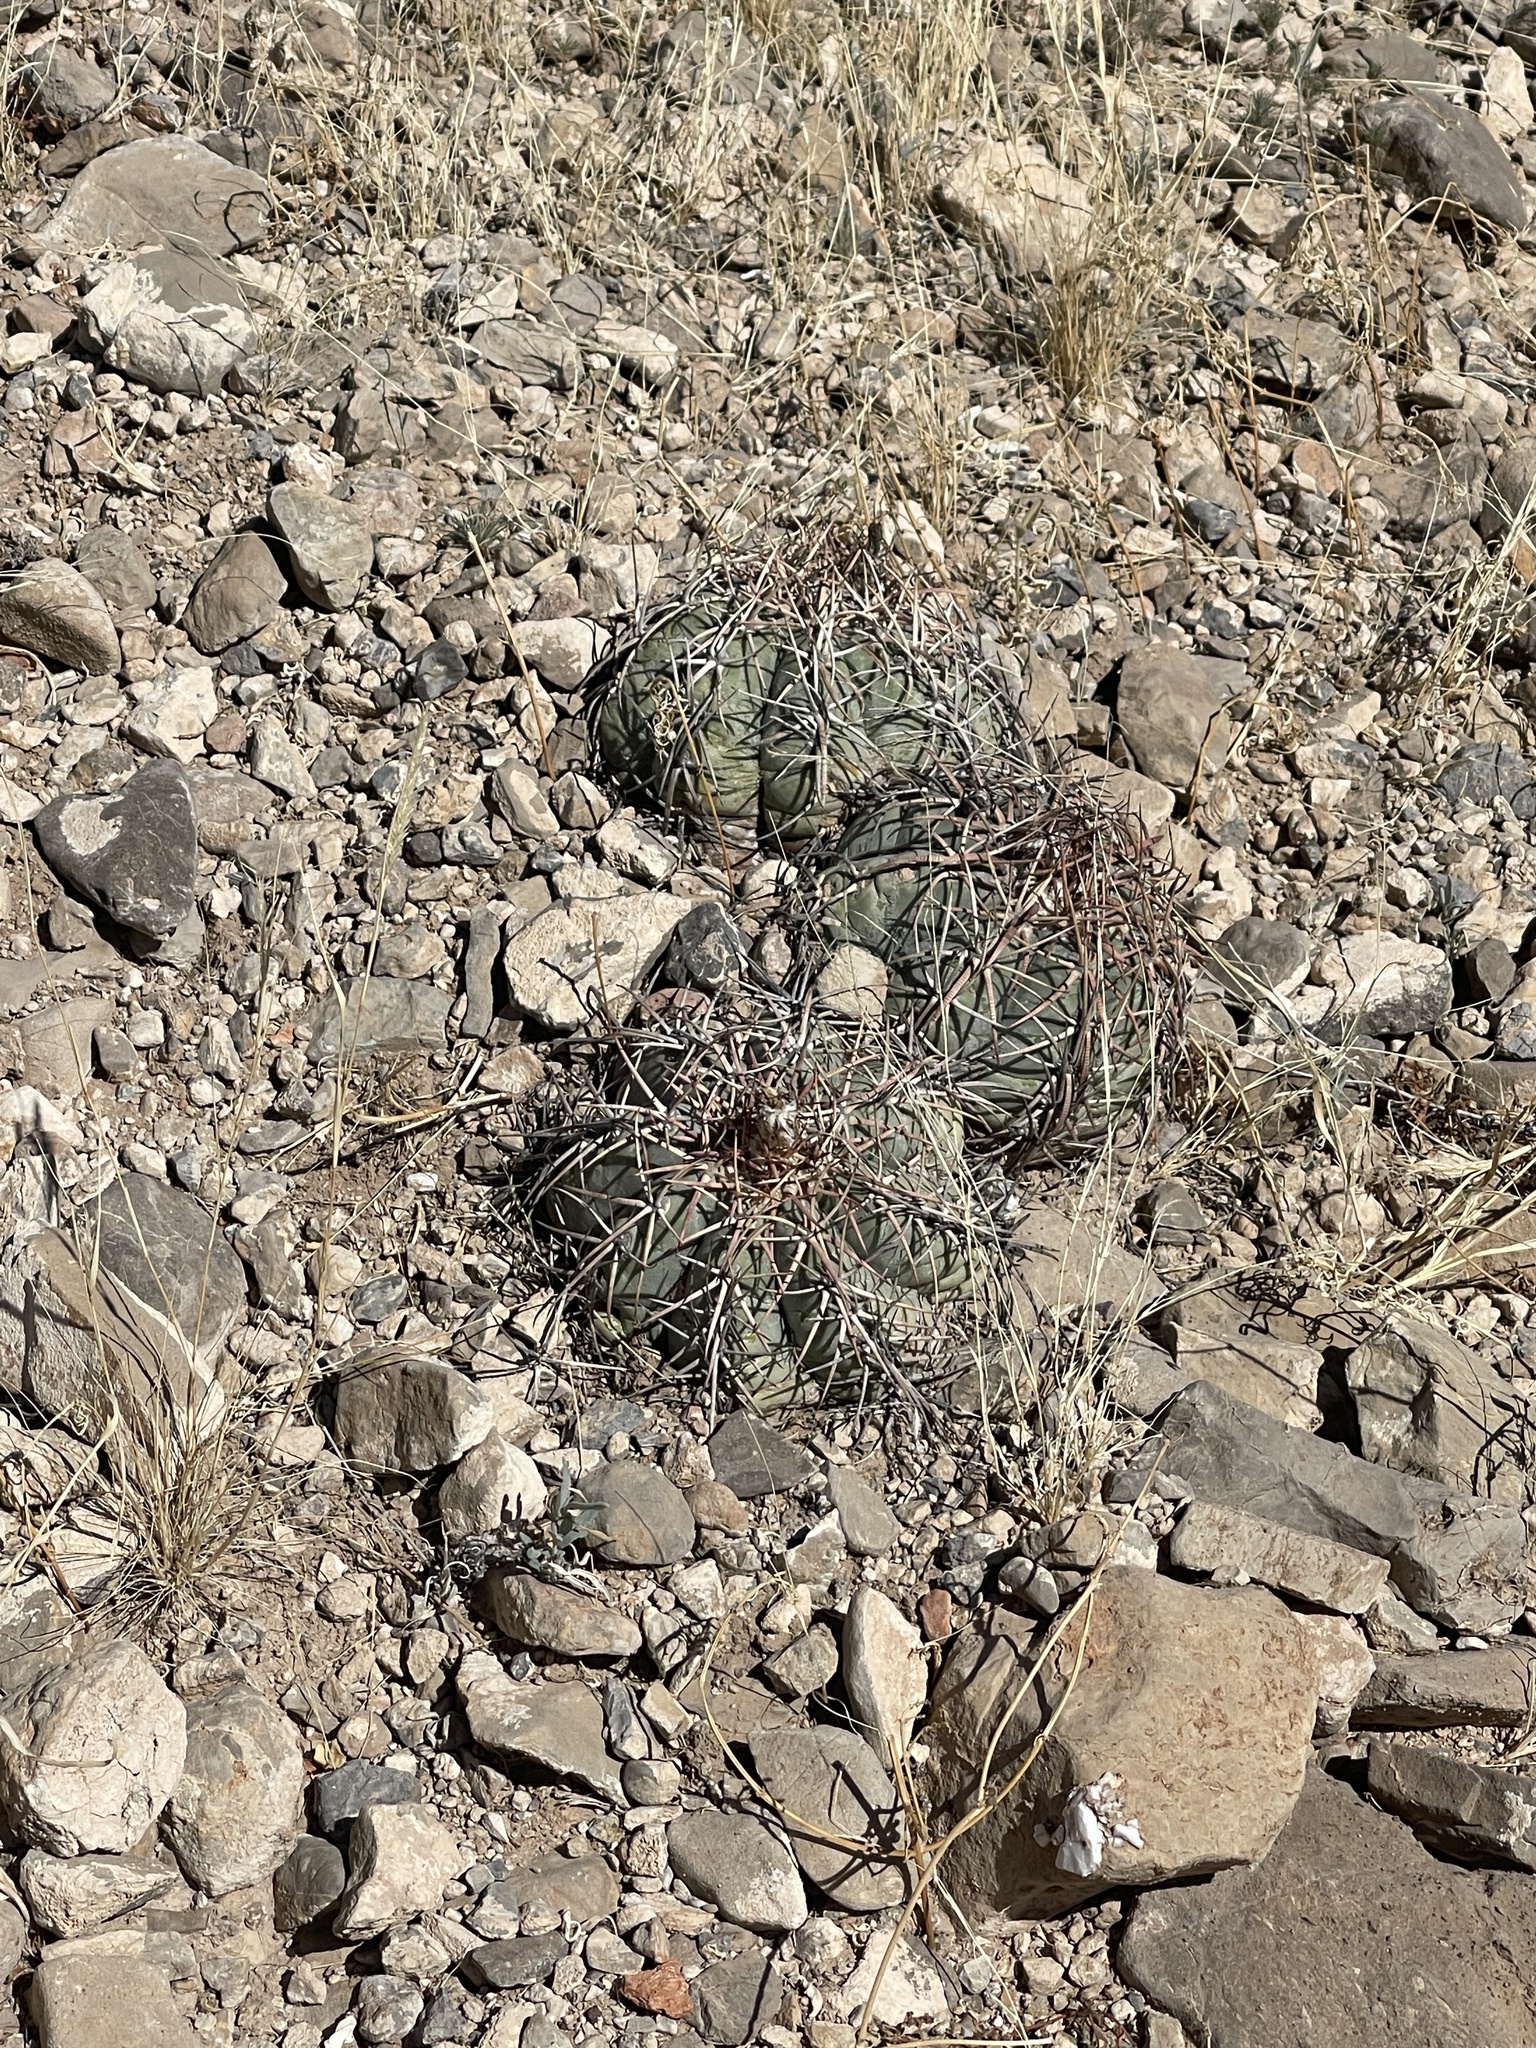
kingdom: Plantae
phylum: Tracheophyta
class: Magnoliopsida
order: Caryophyllales
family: Cactaceae
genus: Echinocactus
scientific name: Echinocactus horizonthalonius
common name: Devilshead
